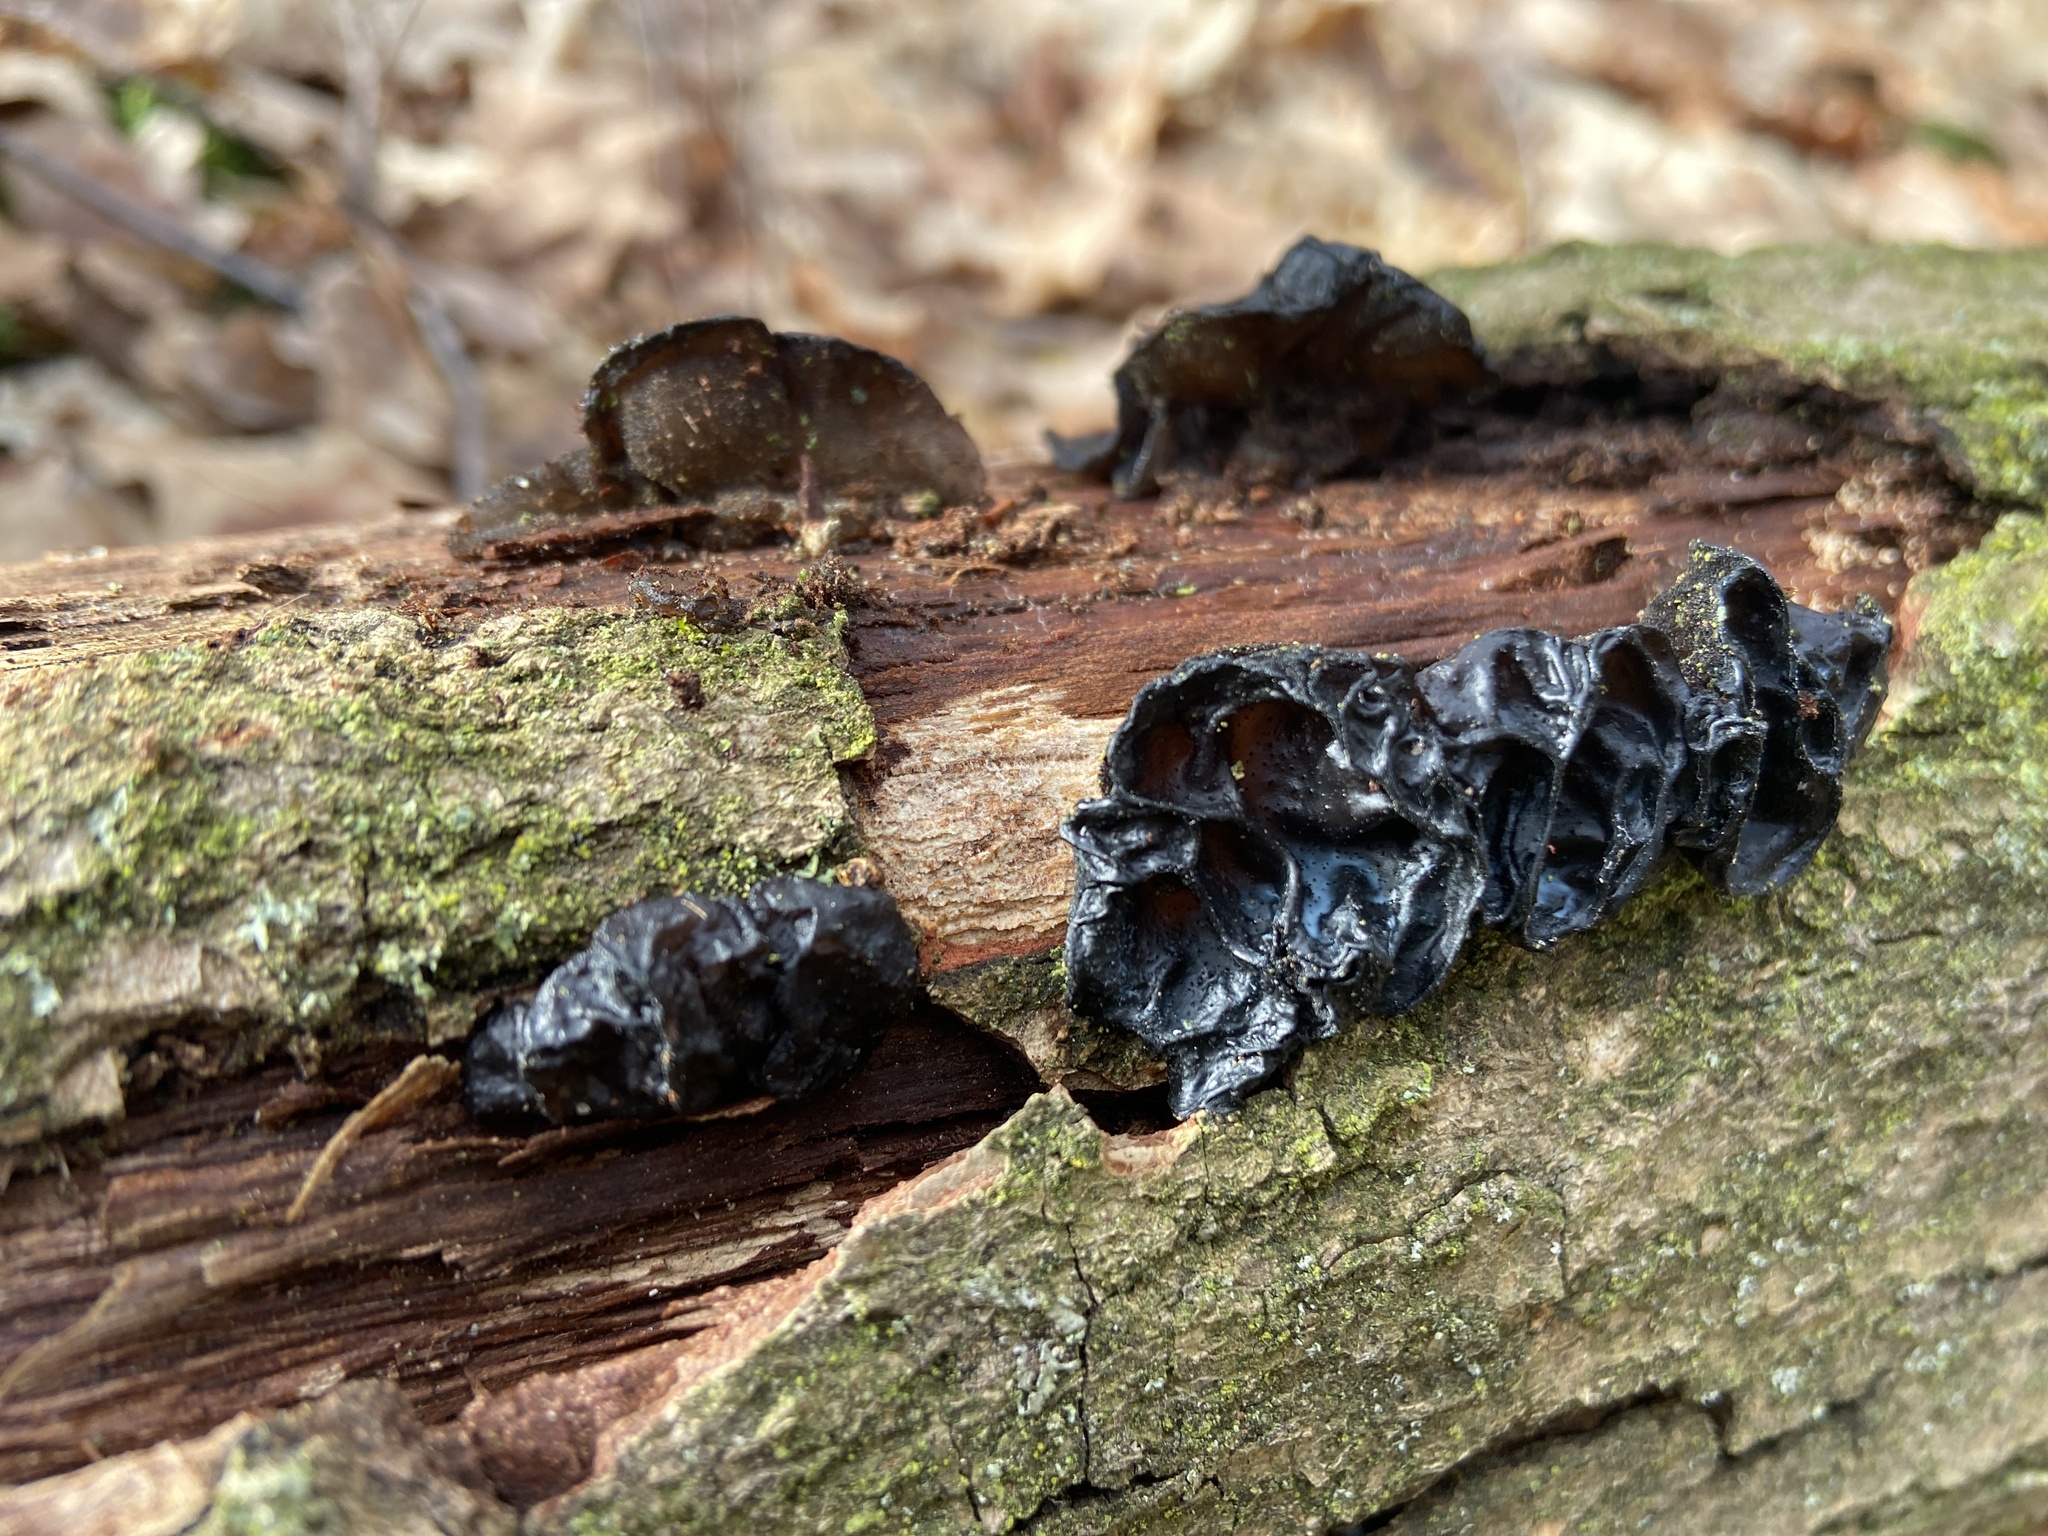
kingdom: Fungi
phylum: Basidiomycota
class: Agaricomycetes
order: Auriculariales
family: Auriculariaceae
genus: Exidia
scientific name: Exidia glandulosa
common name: Witches' butter
